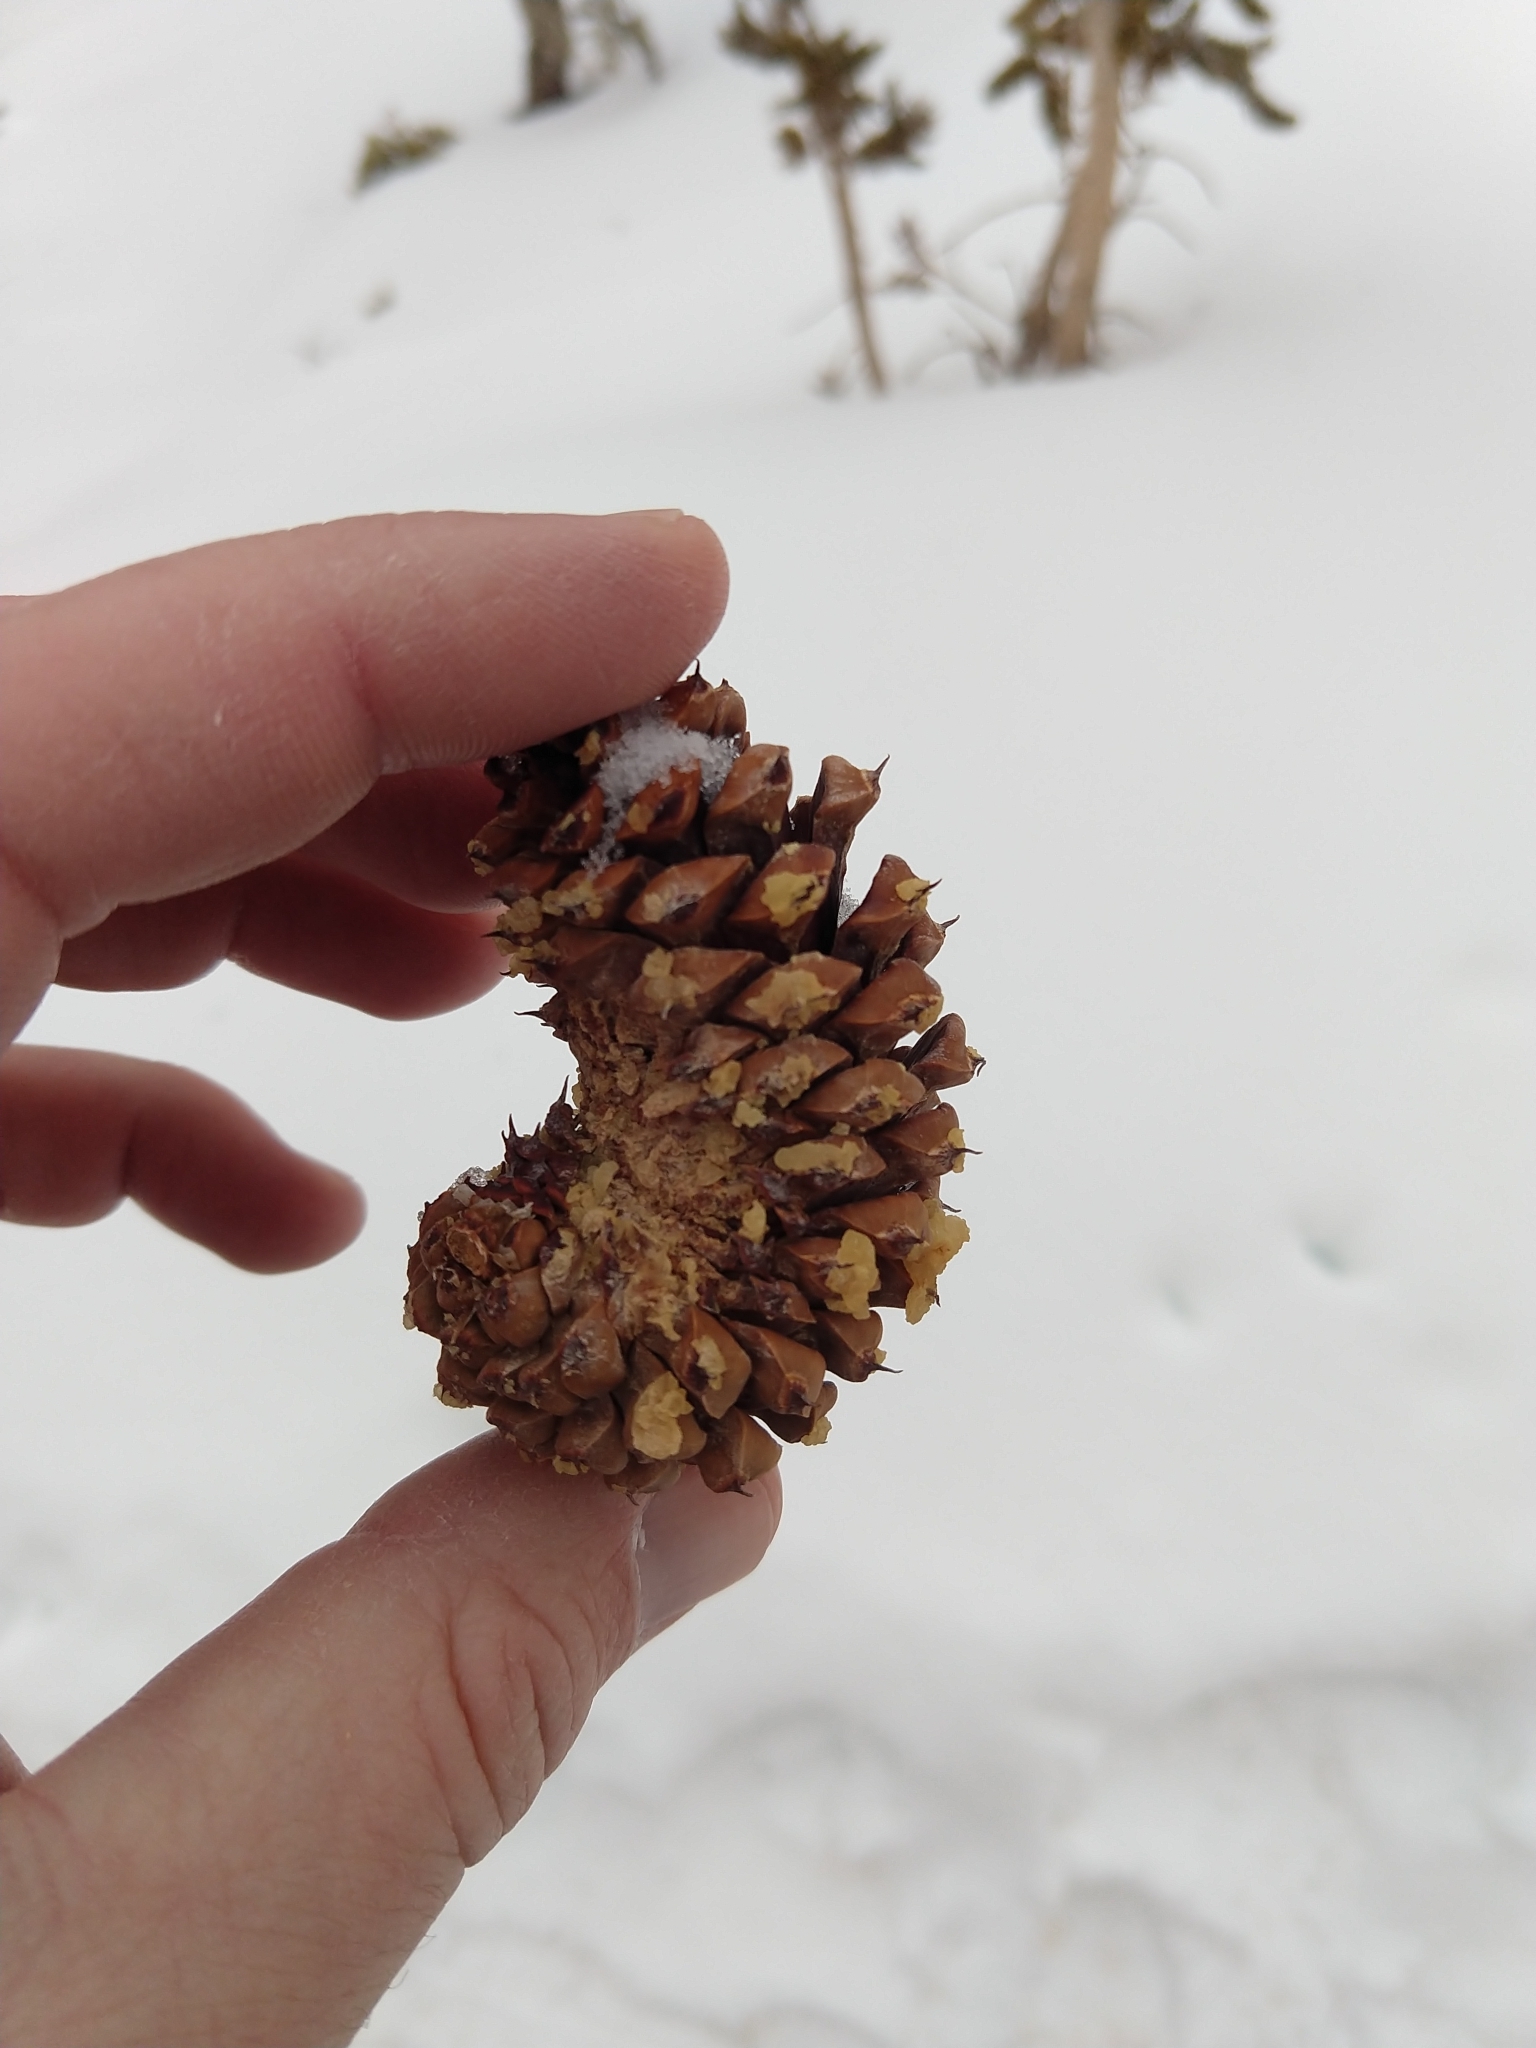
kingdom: Plantae
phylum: Tracheophyta
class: Pinopsida
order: Pinales
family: Pinaceae
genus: Pinus
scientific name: Pinus longaeva
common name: Intermountain bristlecone pine
